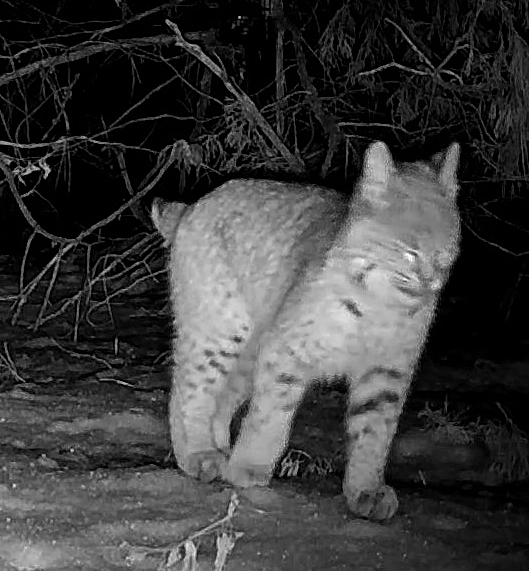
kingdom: Animalia
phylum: Chordata
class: Mammalia
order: Carnivora
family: Felidae
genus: Lynx
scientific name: Lynx rufus
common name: Bobcat
